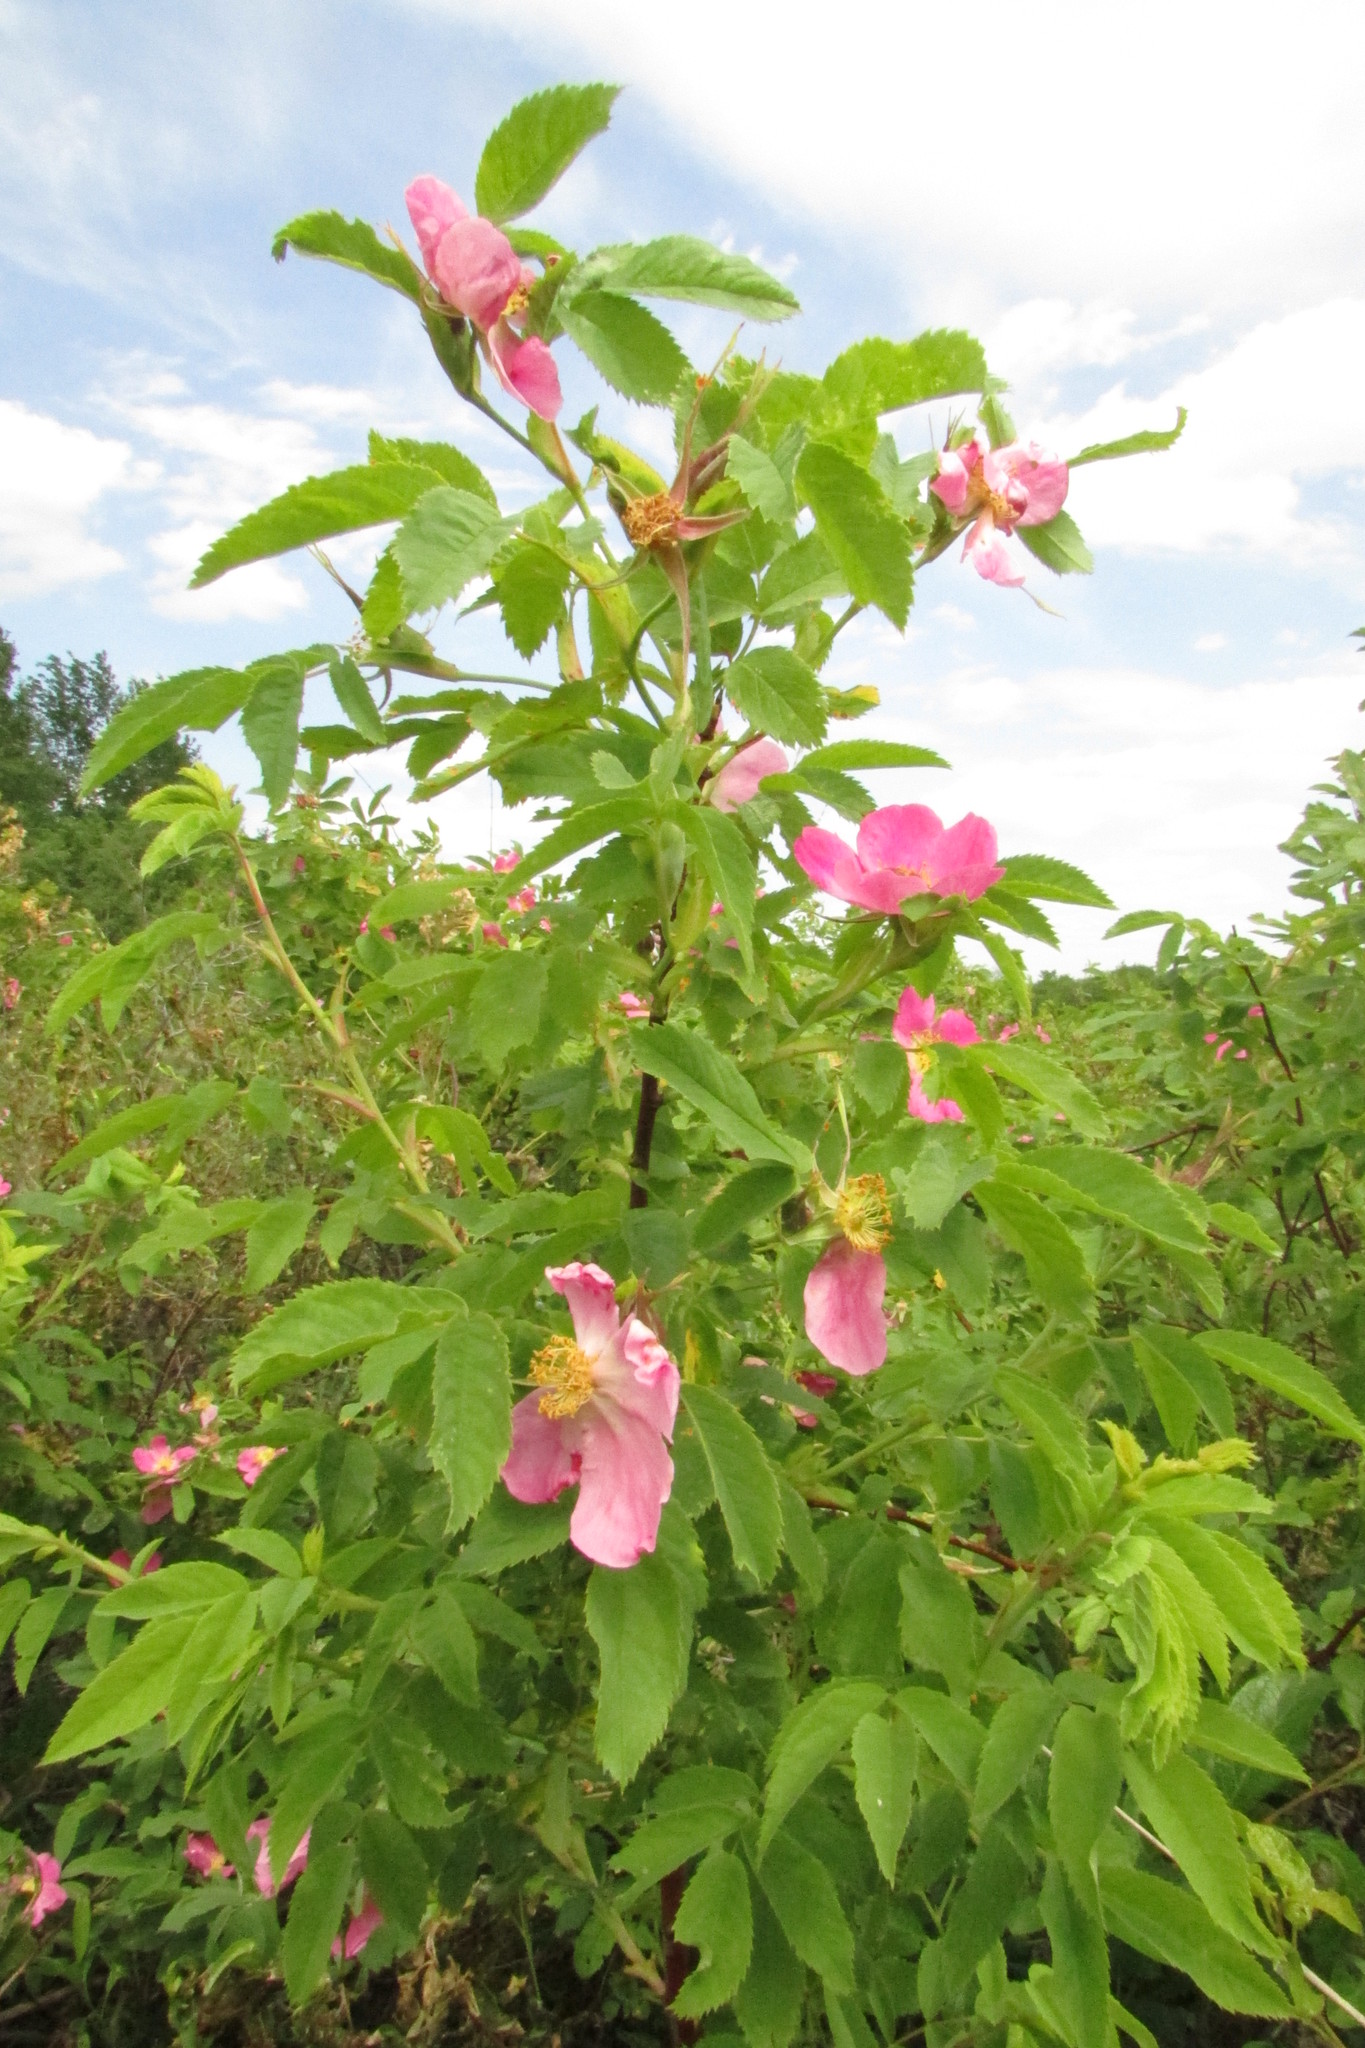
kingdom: Plantae
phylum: Tracheophyta
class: Magnoliopsida
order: Rosales
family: Rosaceae
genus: Rosa
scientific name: Rosa majalis
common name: Cinnamon rose
